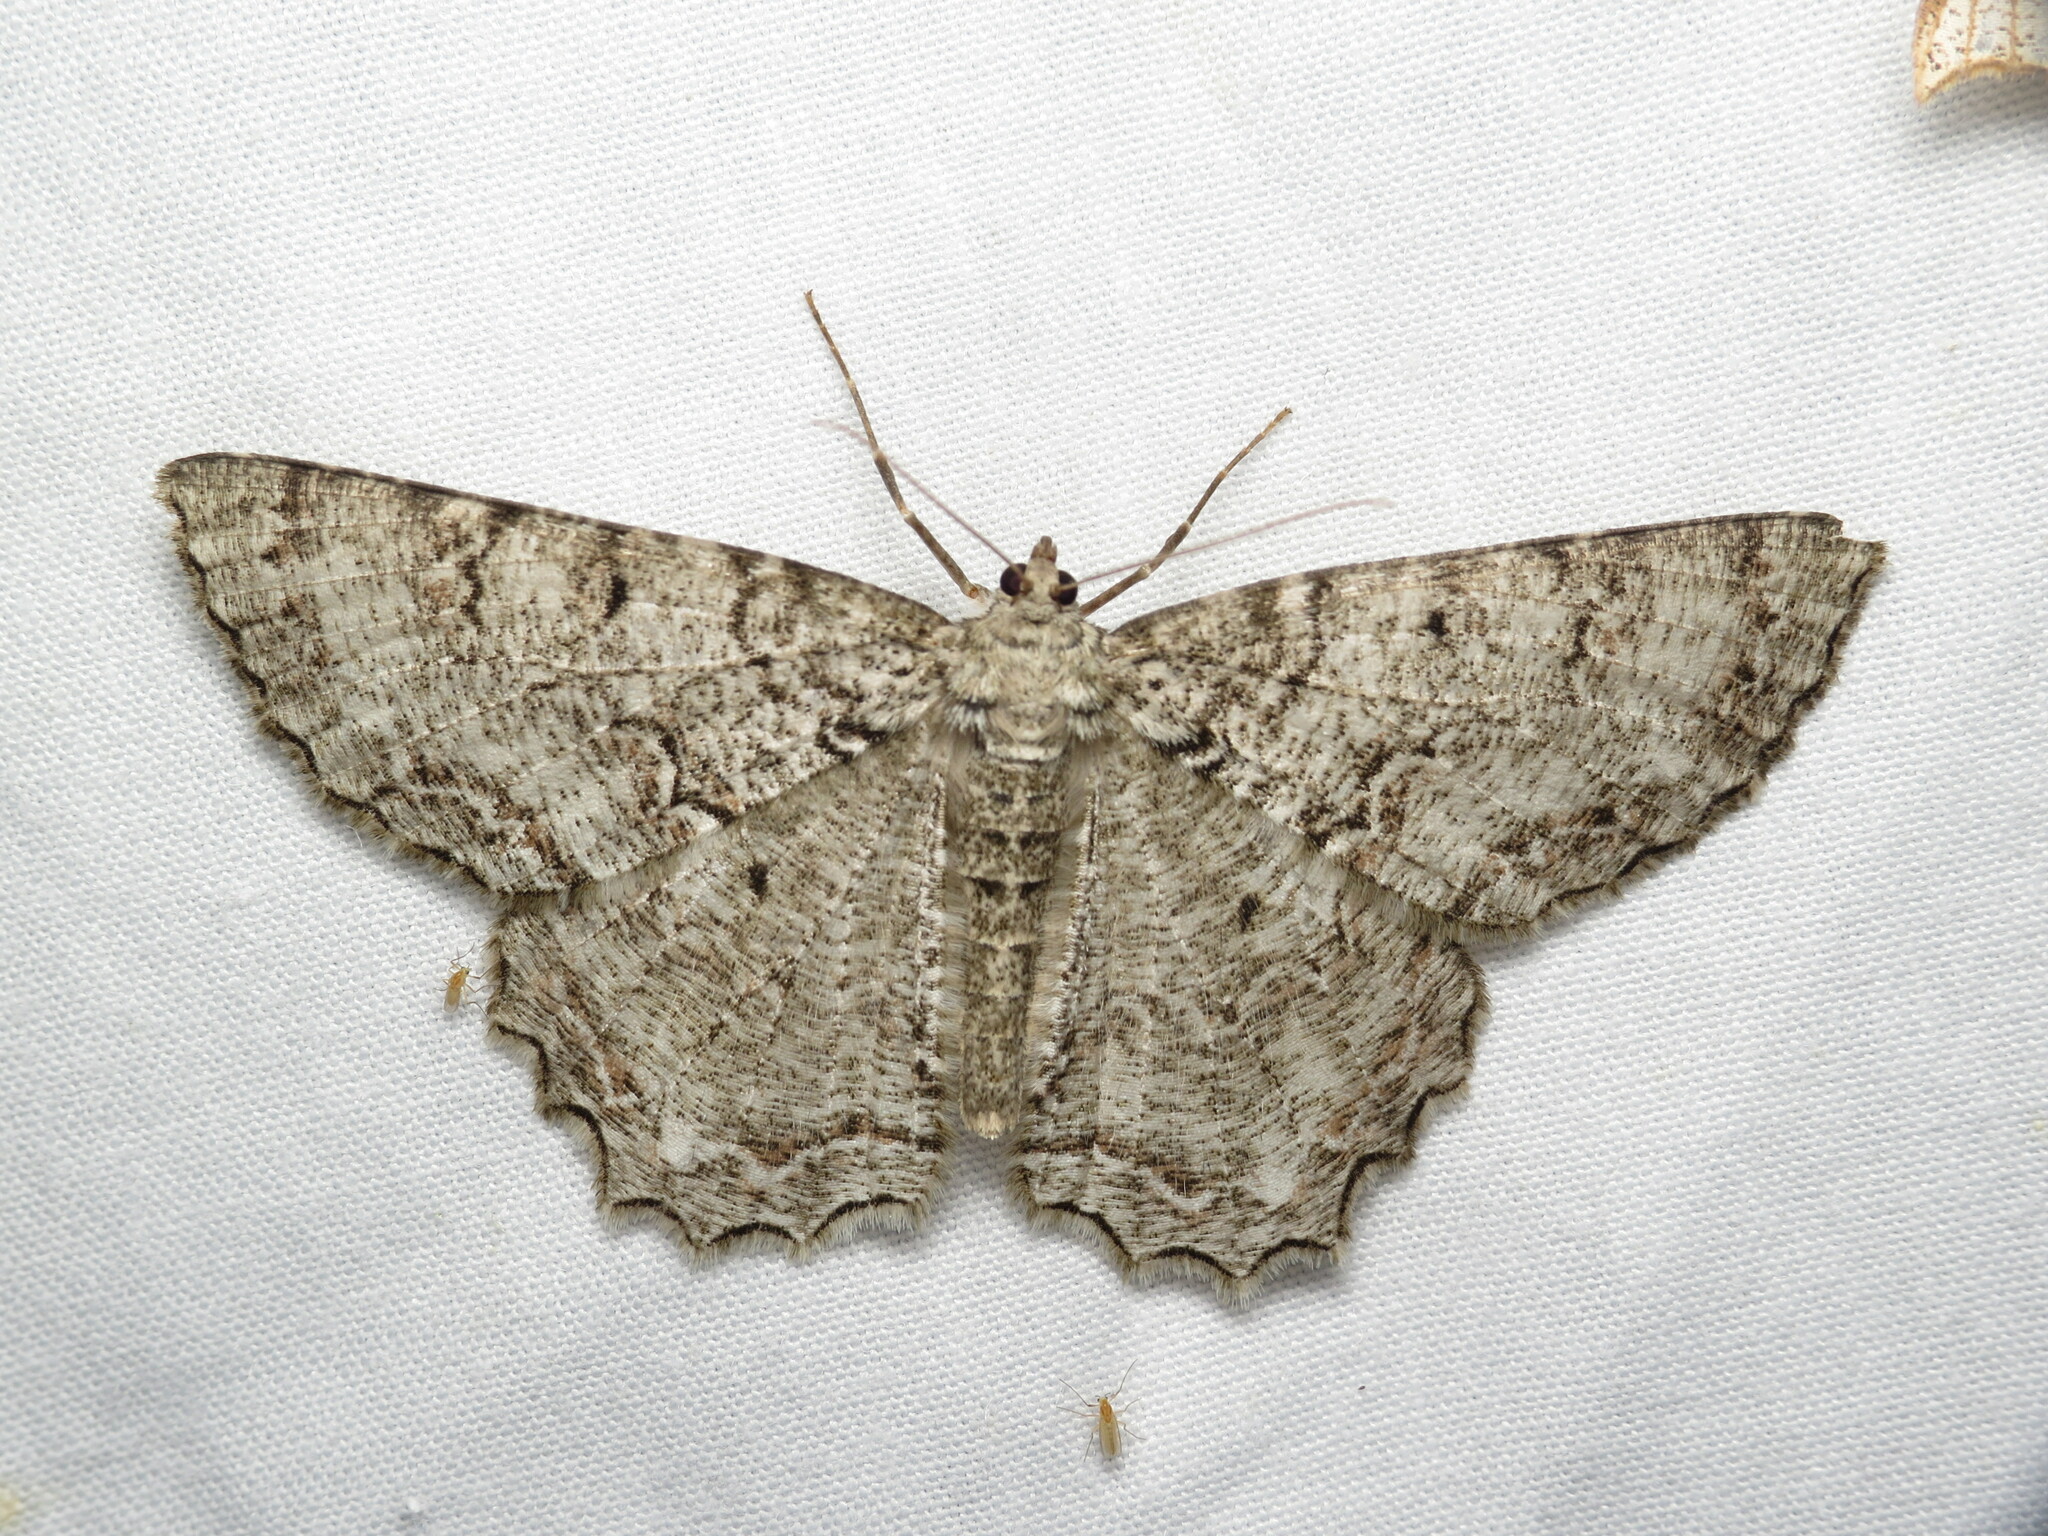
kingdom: Animalia
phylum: Arthropoda
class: Insecta
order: Lepidoptera
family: Geometridae
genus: Epimecis
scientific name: Epimecis hortaria
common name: Tulip-tree beauty
